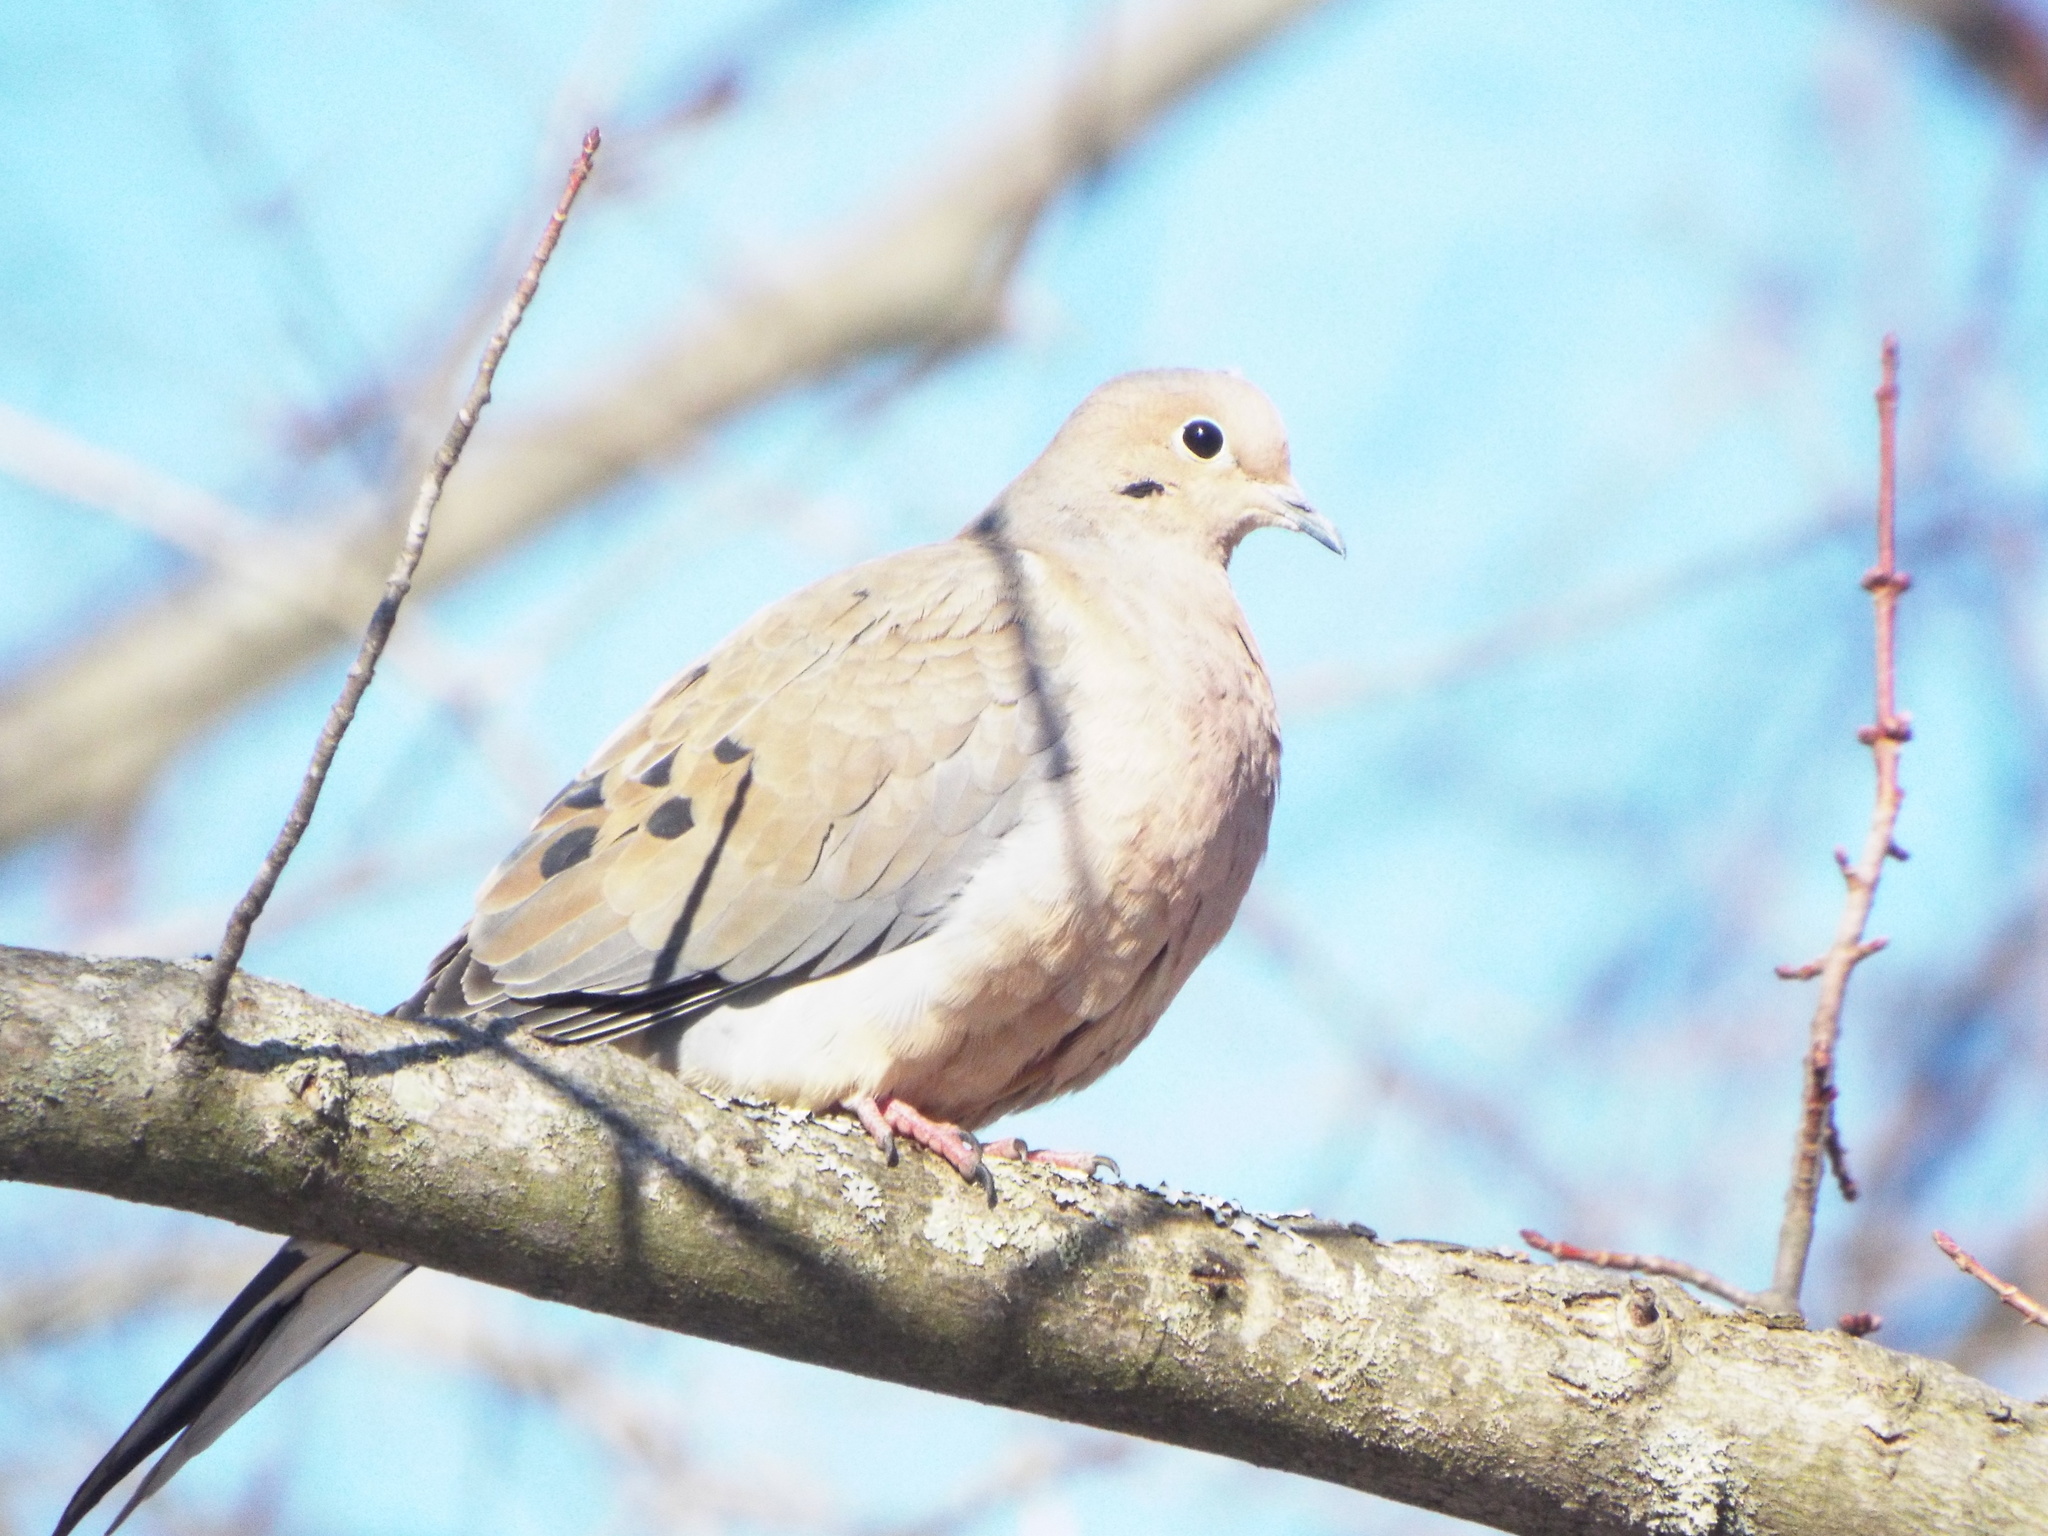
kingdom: Animalia
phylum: Chordata
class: Aves
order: Columbiformes
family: Columbidae
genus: Zenaida
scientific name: Zenaida macroura
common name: Mourning dove
